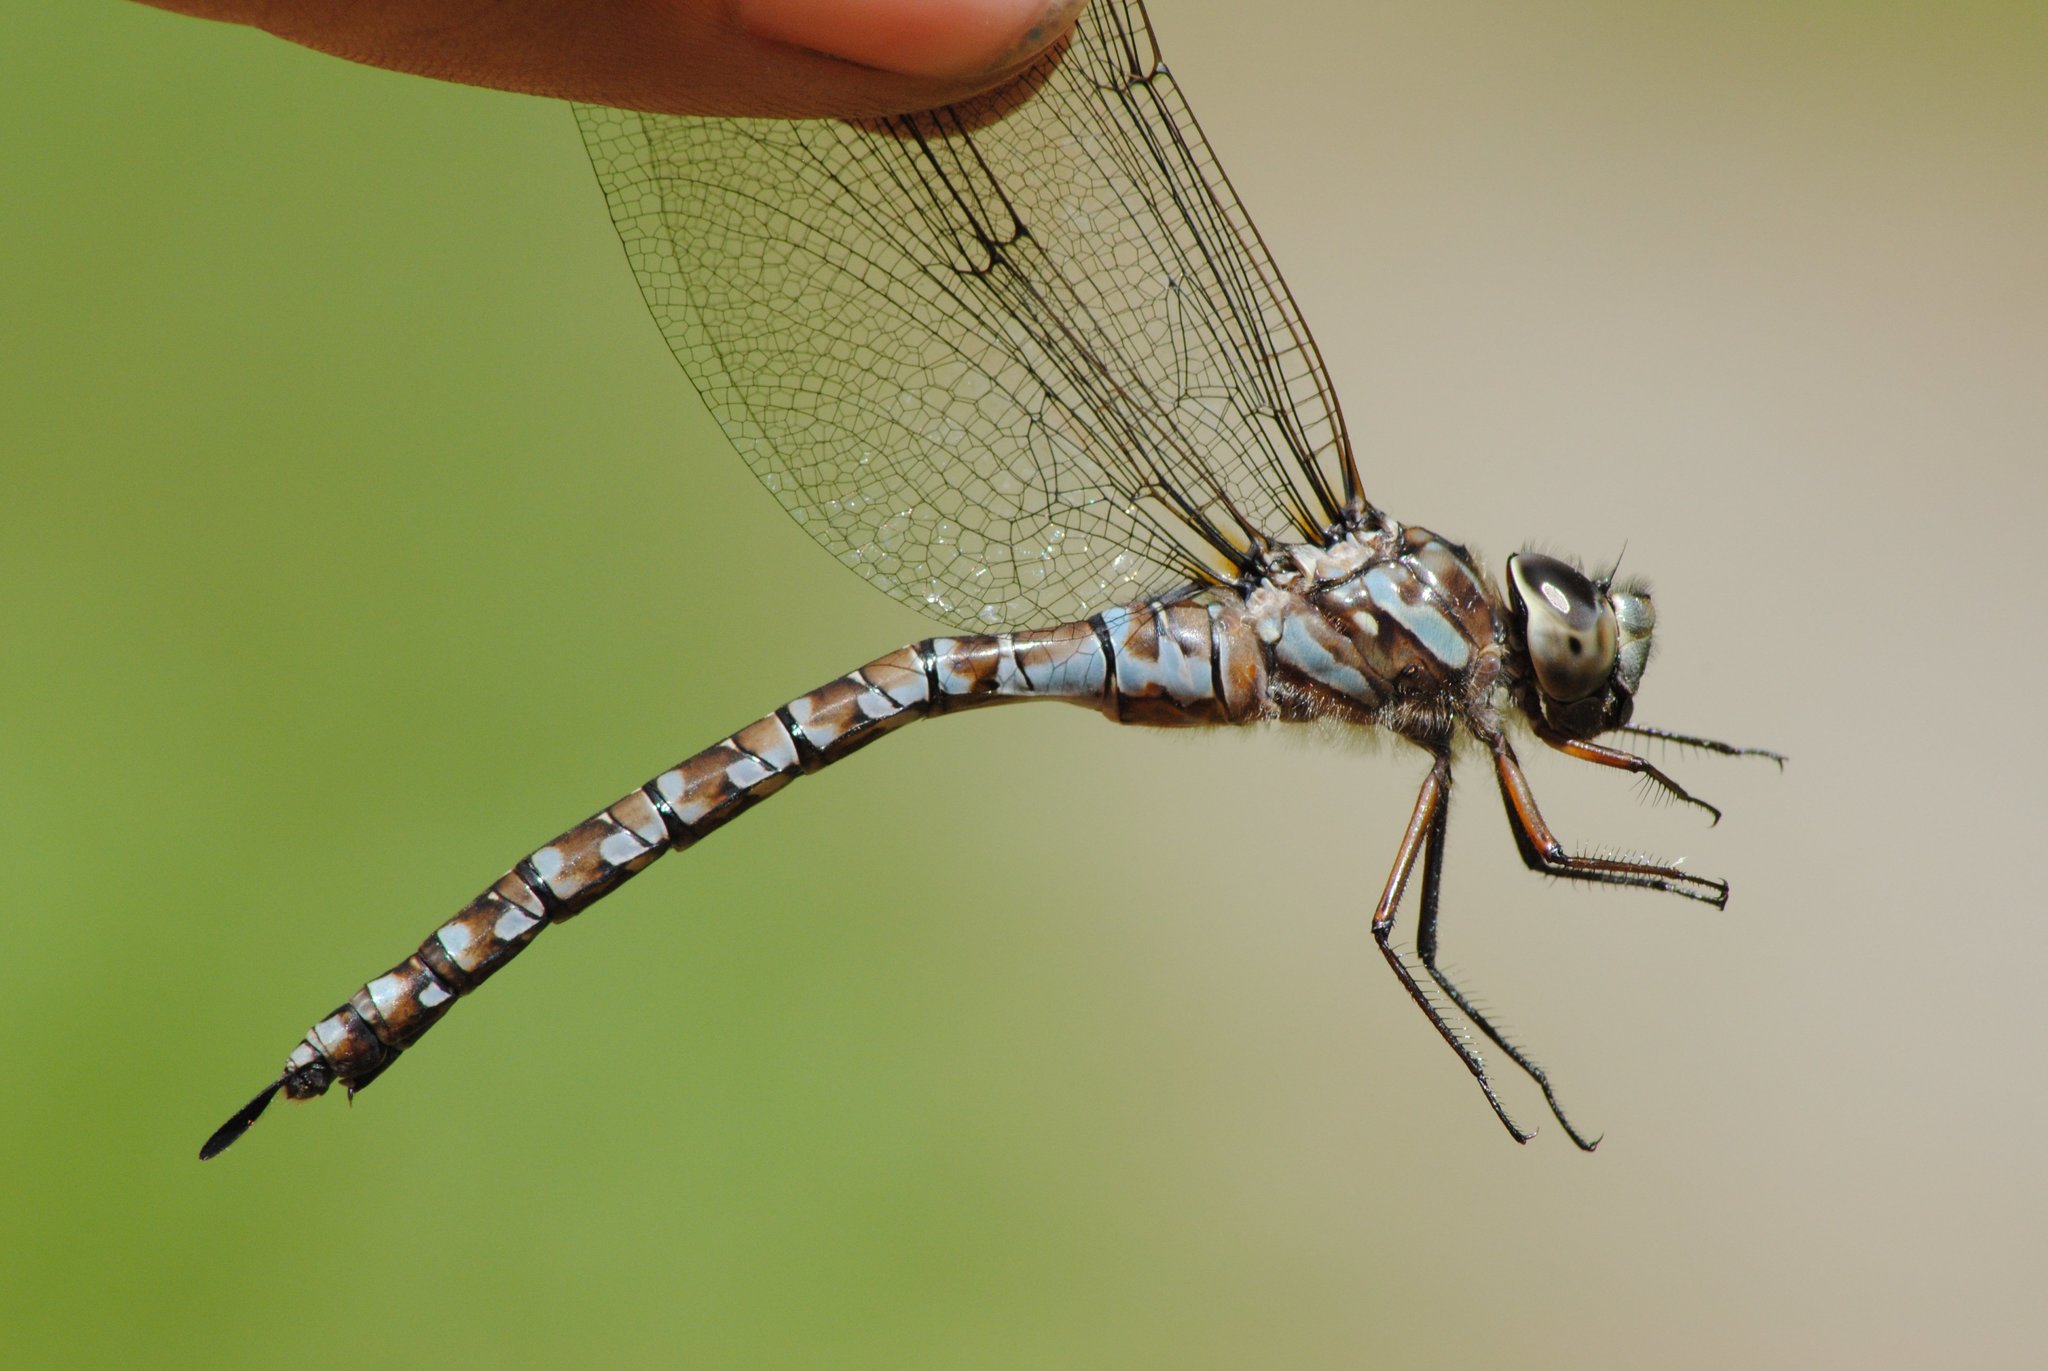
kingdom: Animalia
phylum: Arthropoda
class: Insecta
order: Odonata
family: Aeshnidae
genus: Aeshna
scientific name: Aeshna canadensis
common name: Canada darner
